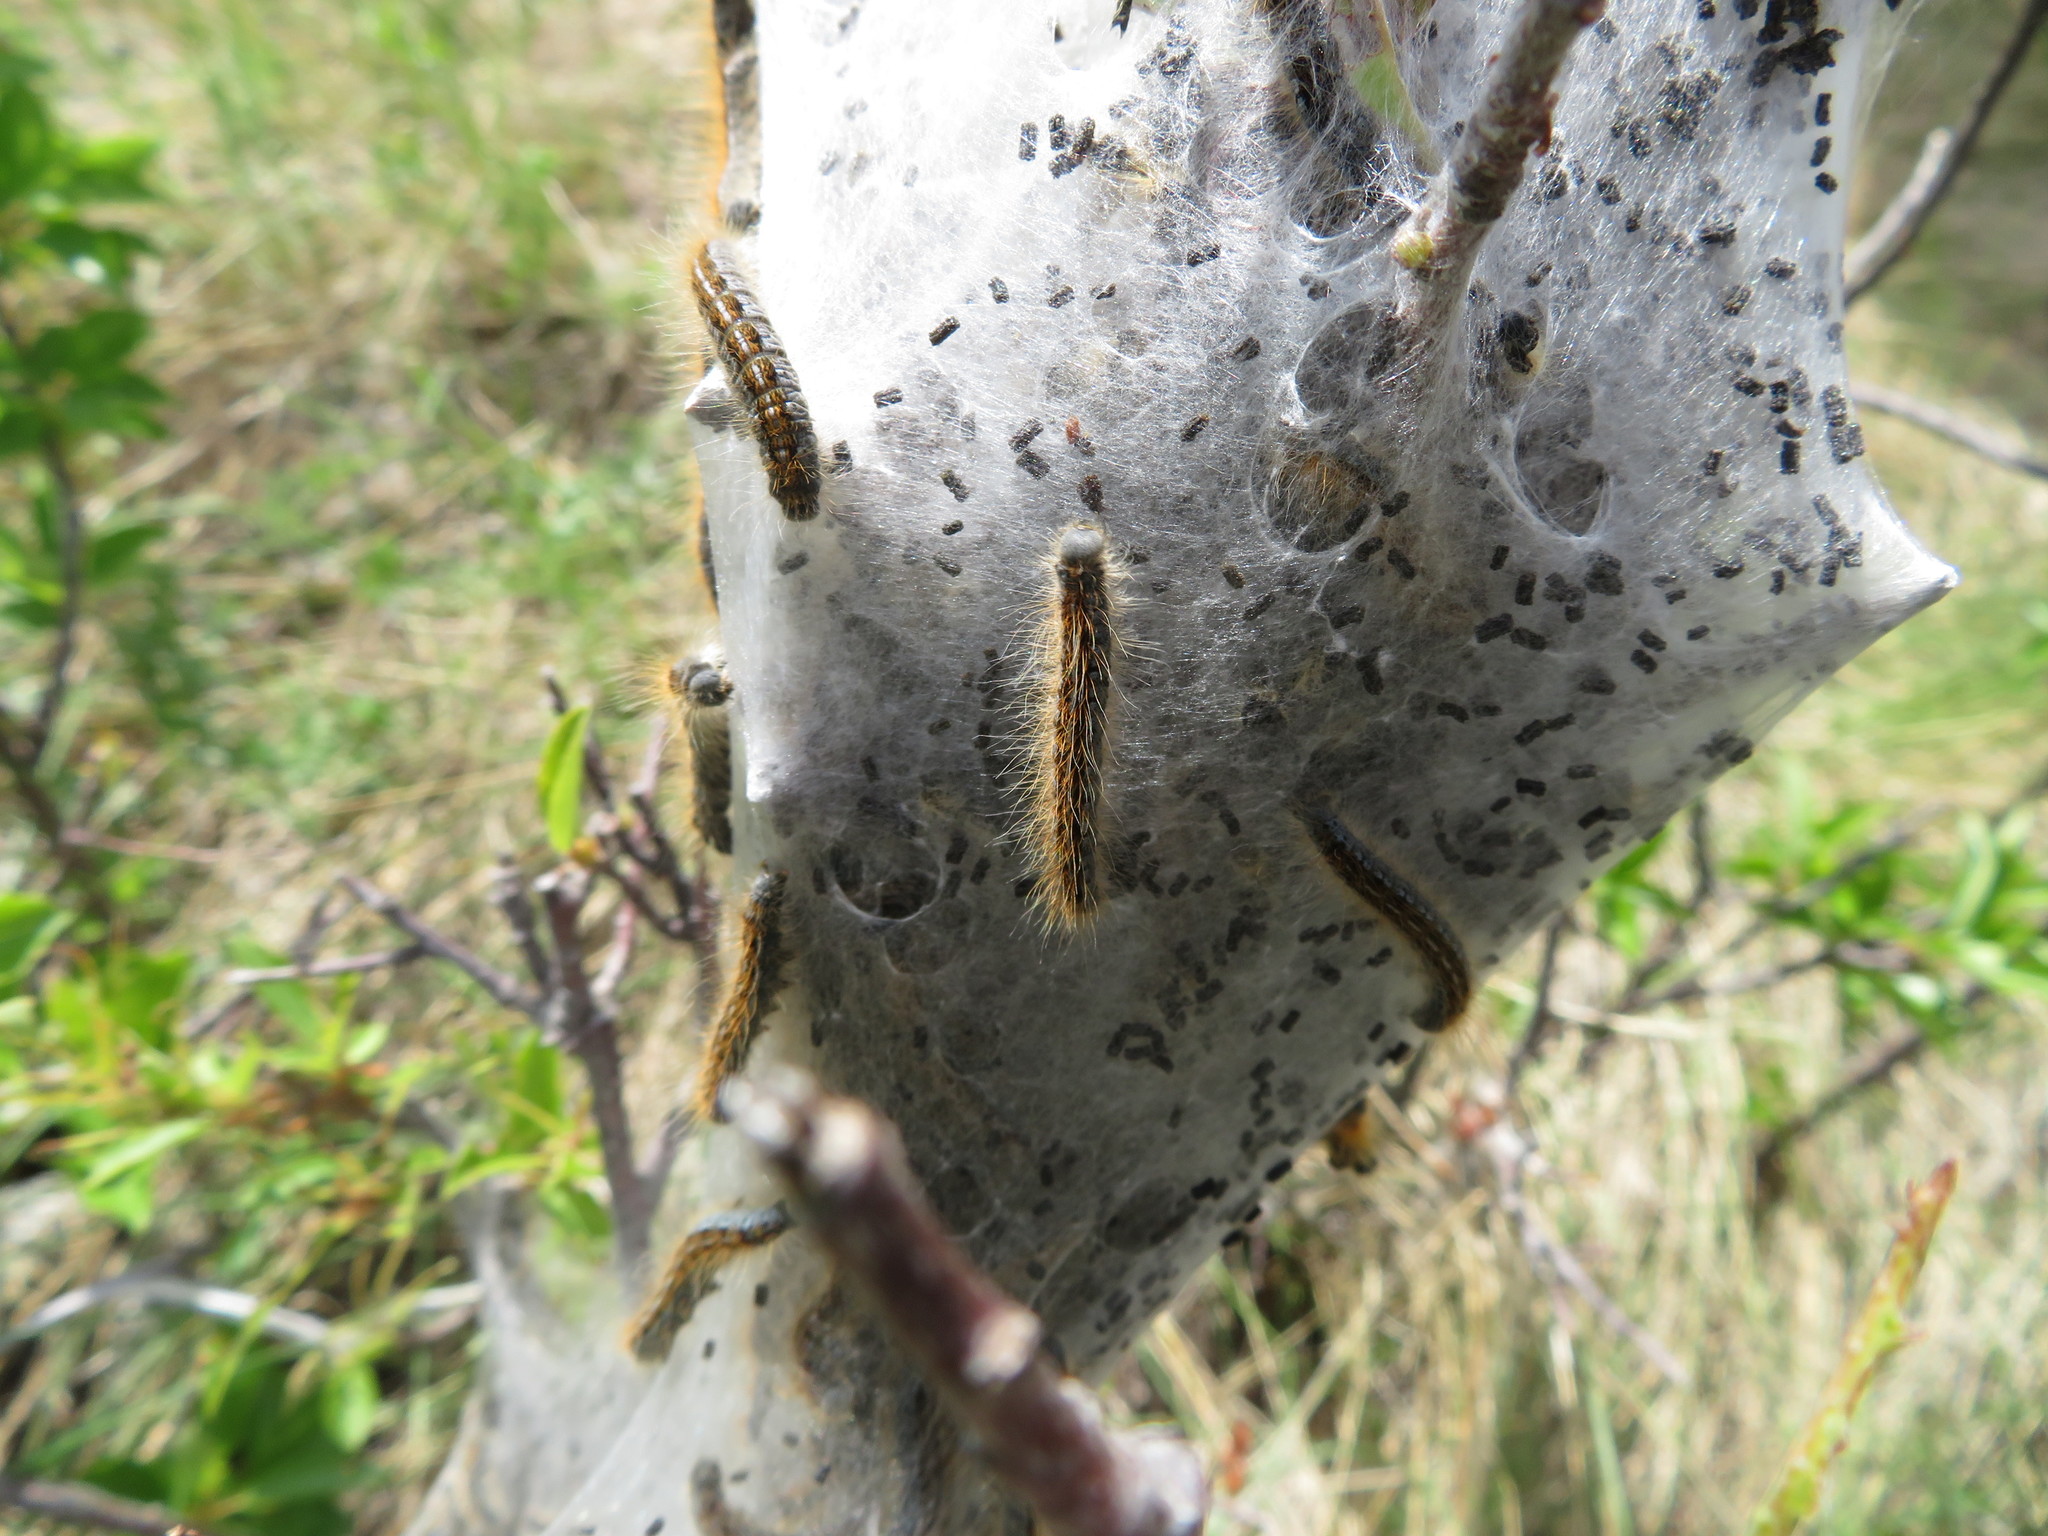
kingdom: Animalia
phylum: Arthropoda
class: Insecta
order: Lepidoptera
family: Lasiocampidae
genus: Malacosoma
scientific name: Malacosoma californica
